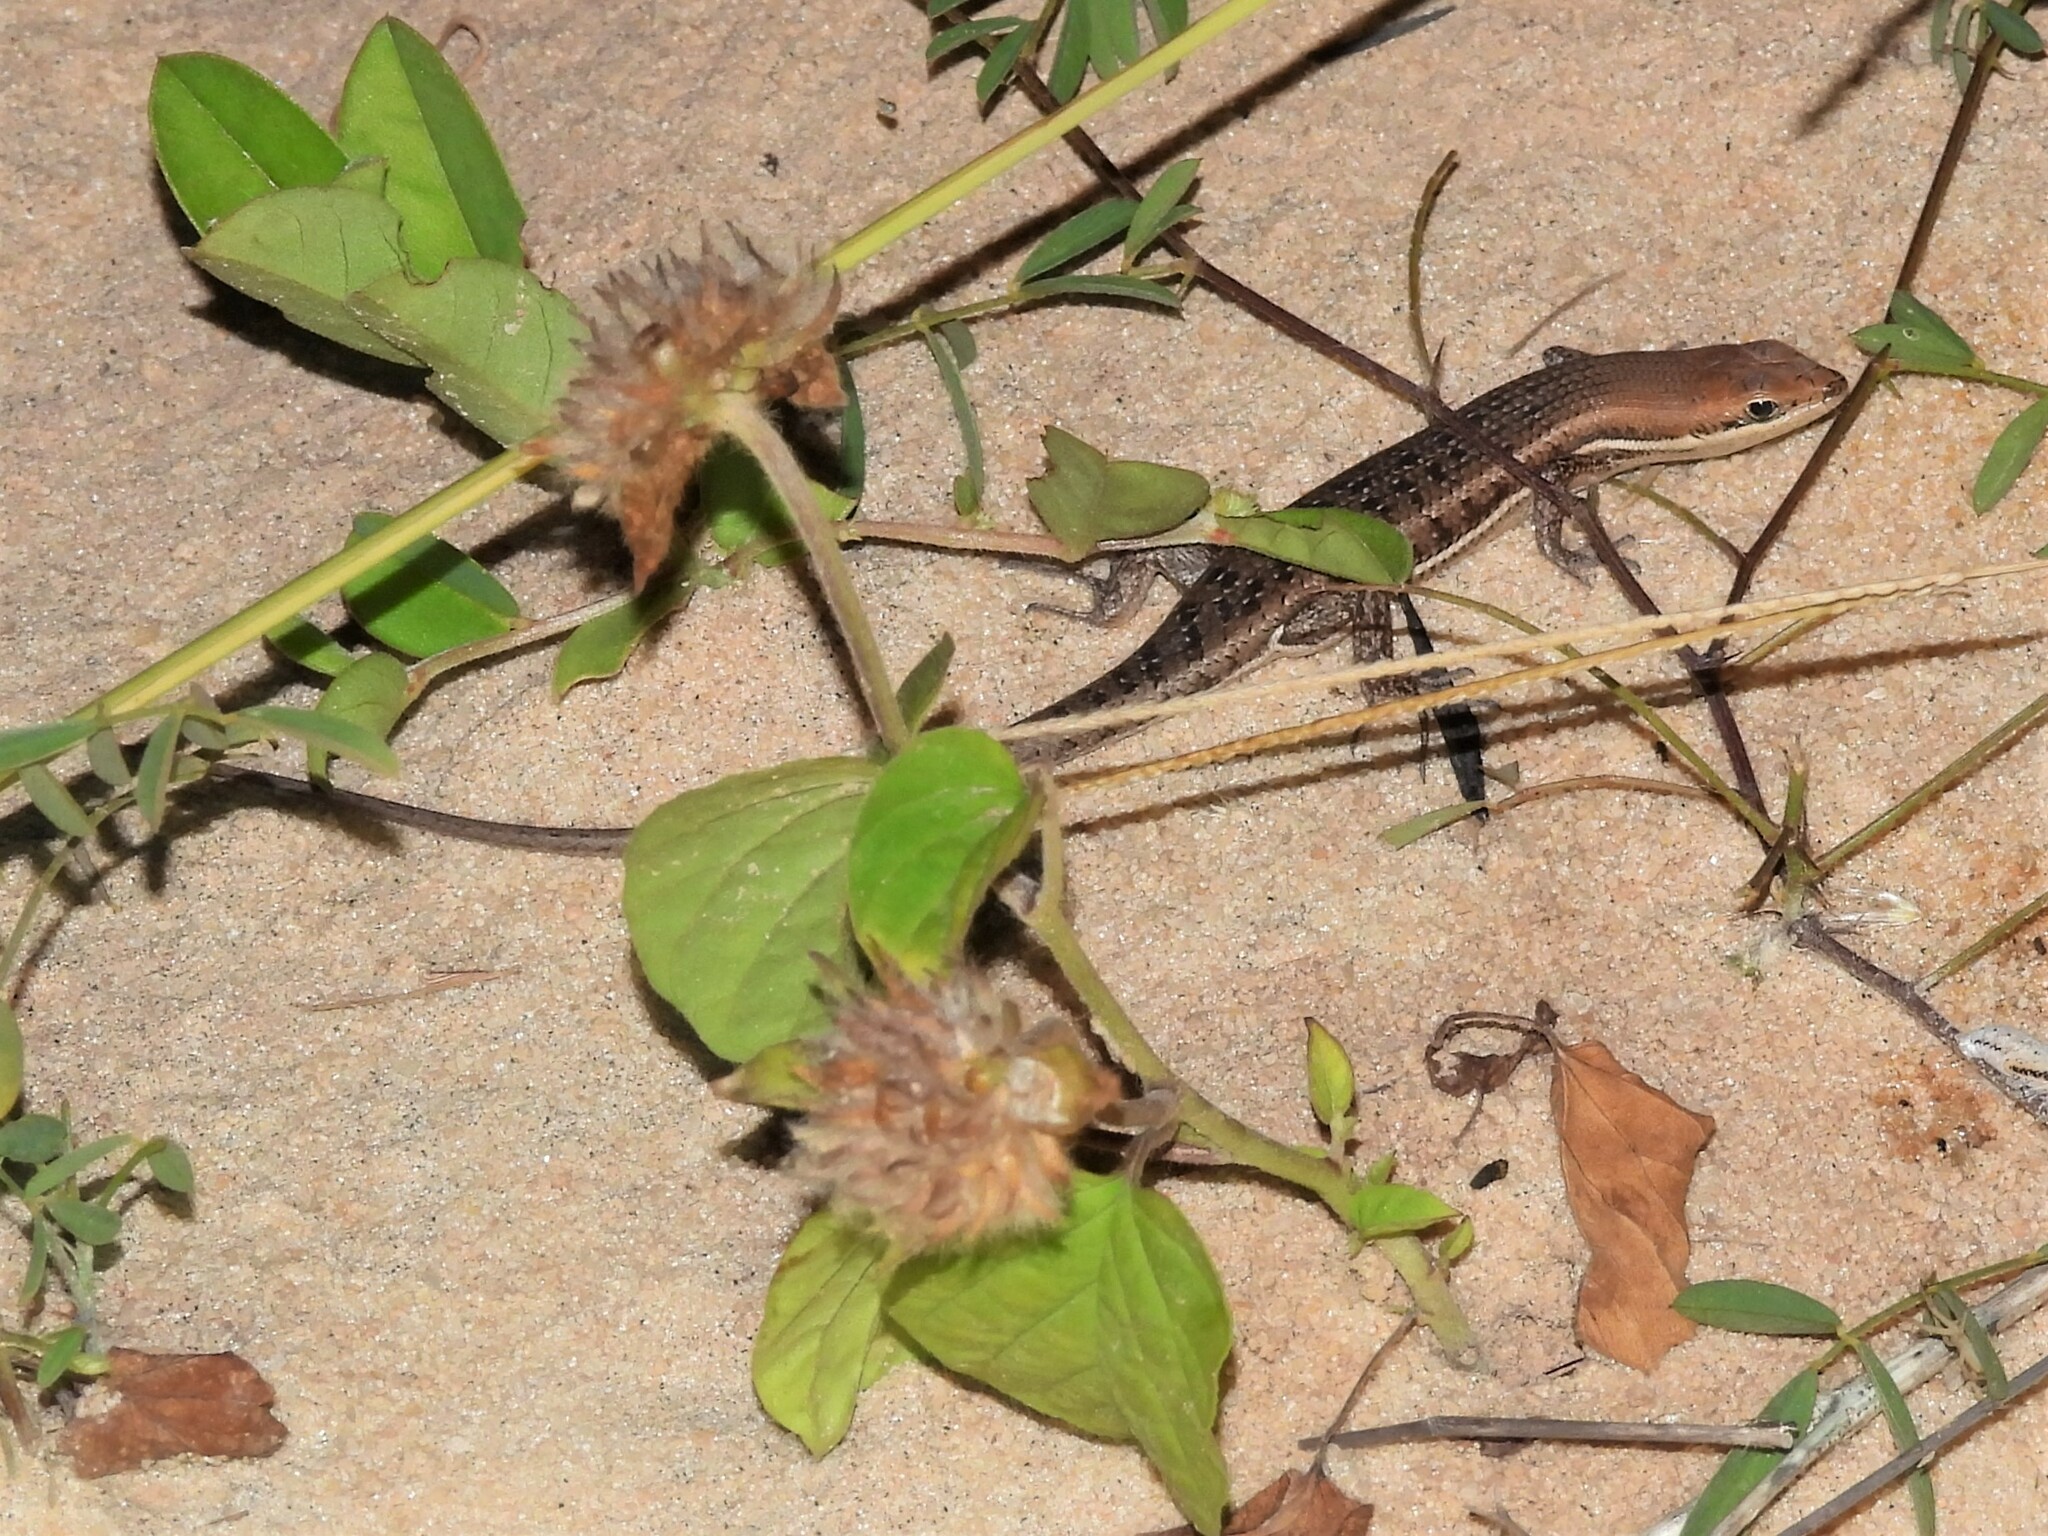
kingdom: Animalia
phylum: Chordata
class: Squamata
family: Scincidae
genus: Trachylepis
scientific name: Trachylepis varia
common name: Eastern variable skink
